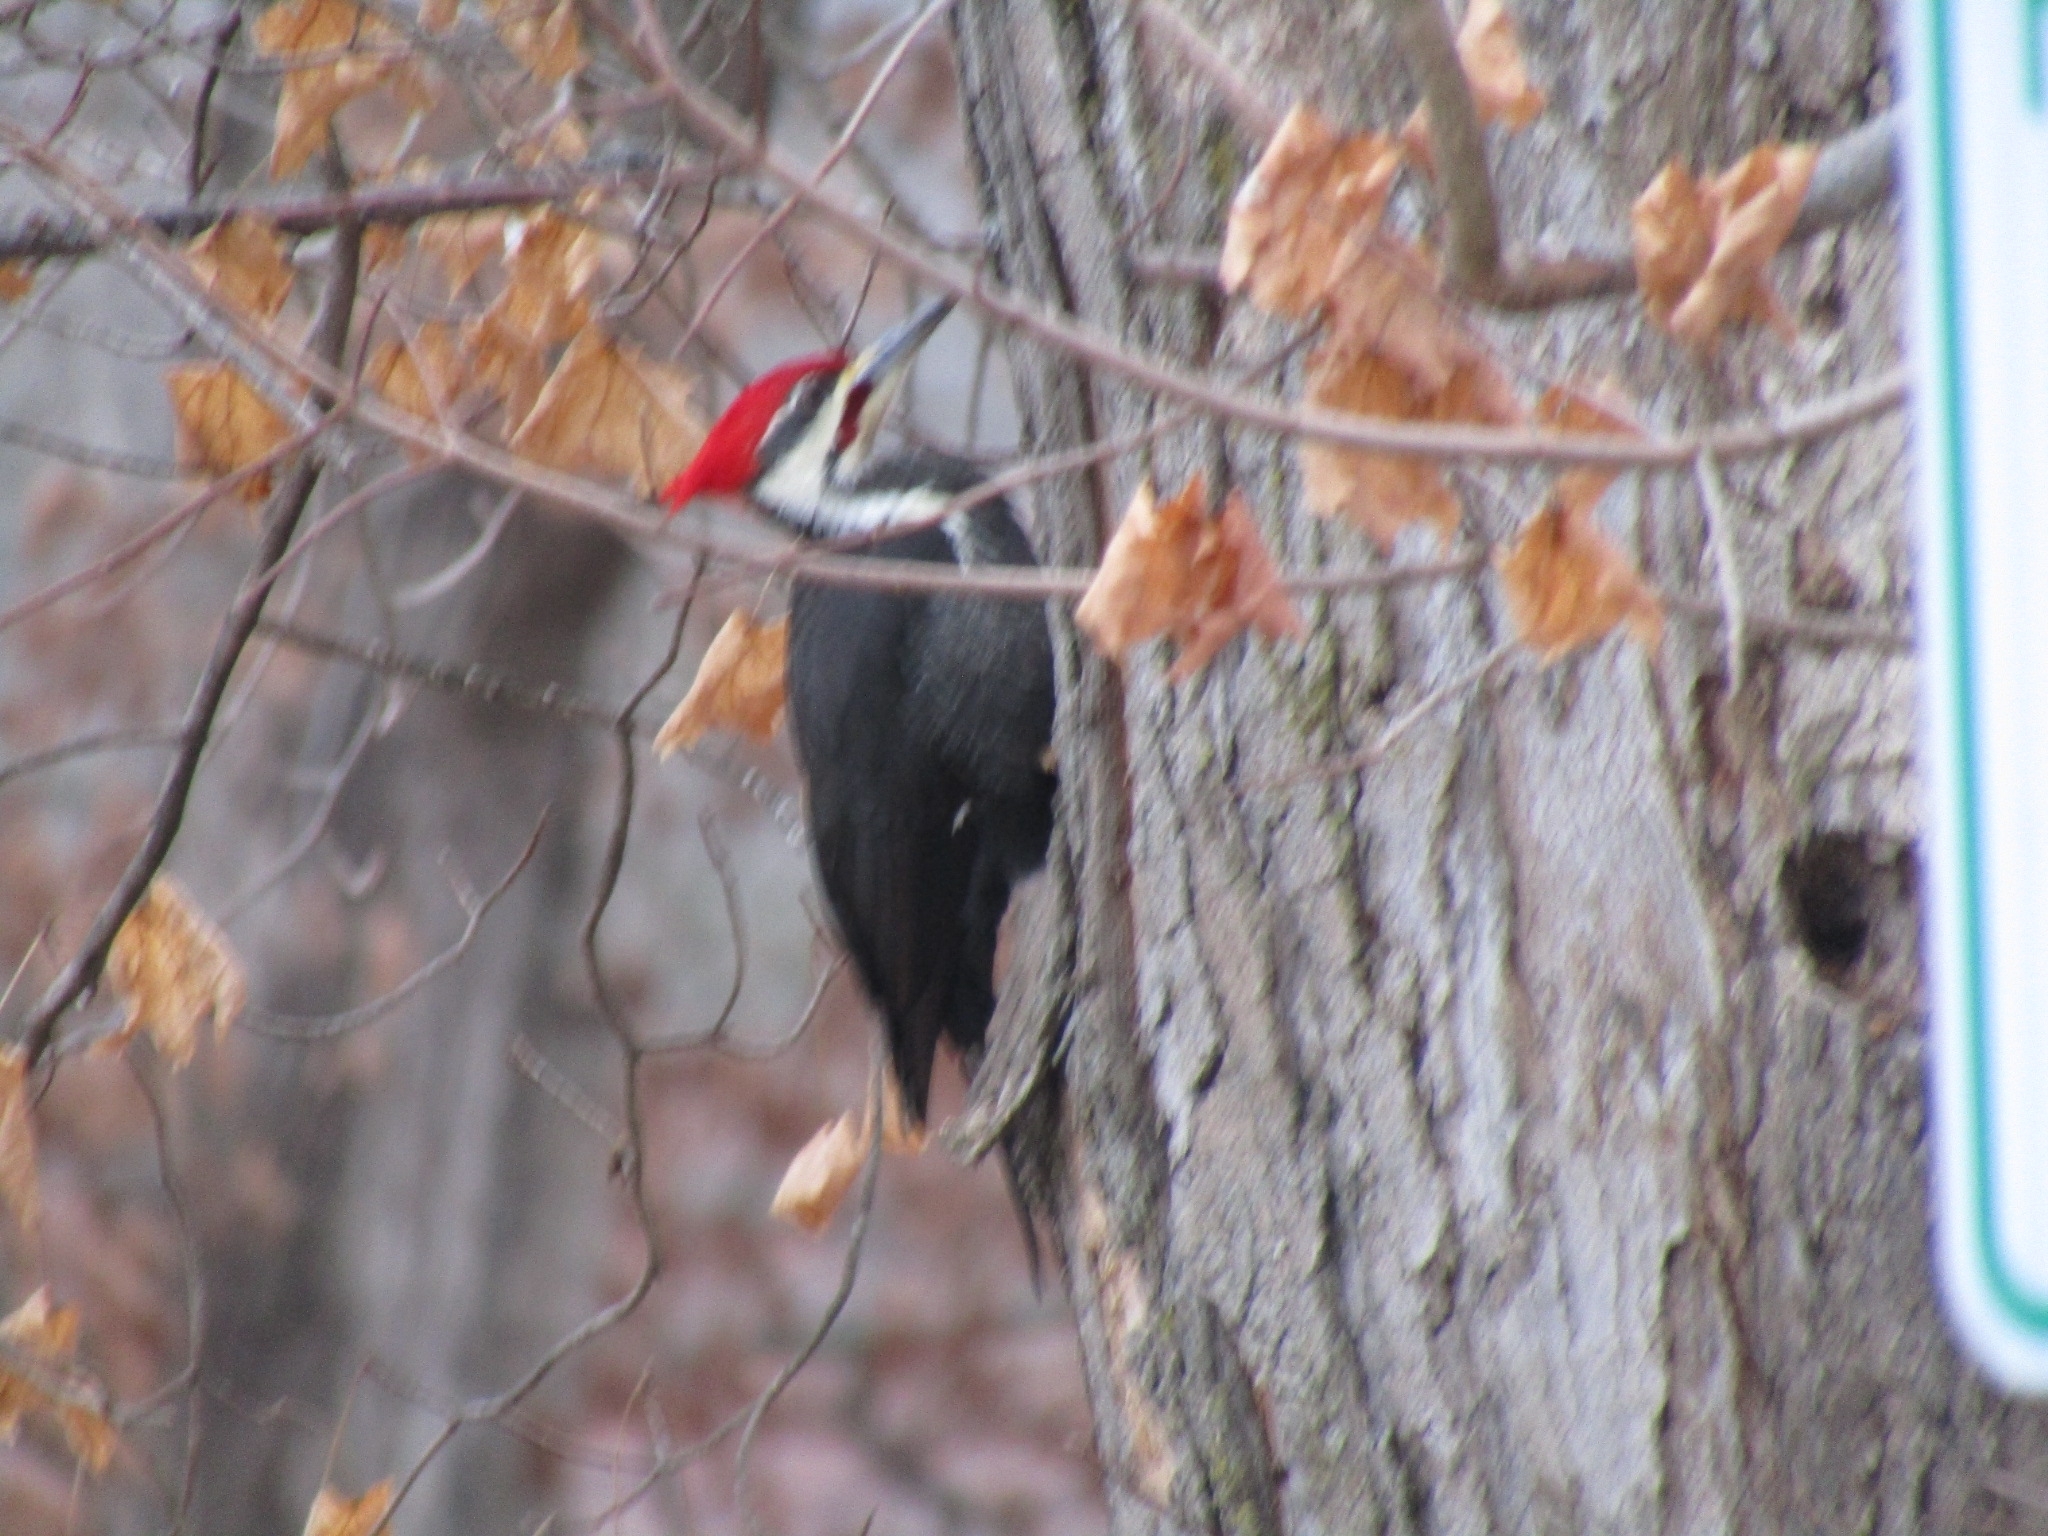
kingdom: Animalia
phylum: Chordata
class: Aves
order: Piciformes
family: Picidae
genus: Dryocopus
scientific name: Dryocopus pileatus
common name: Pileated woodpecker
